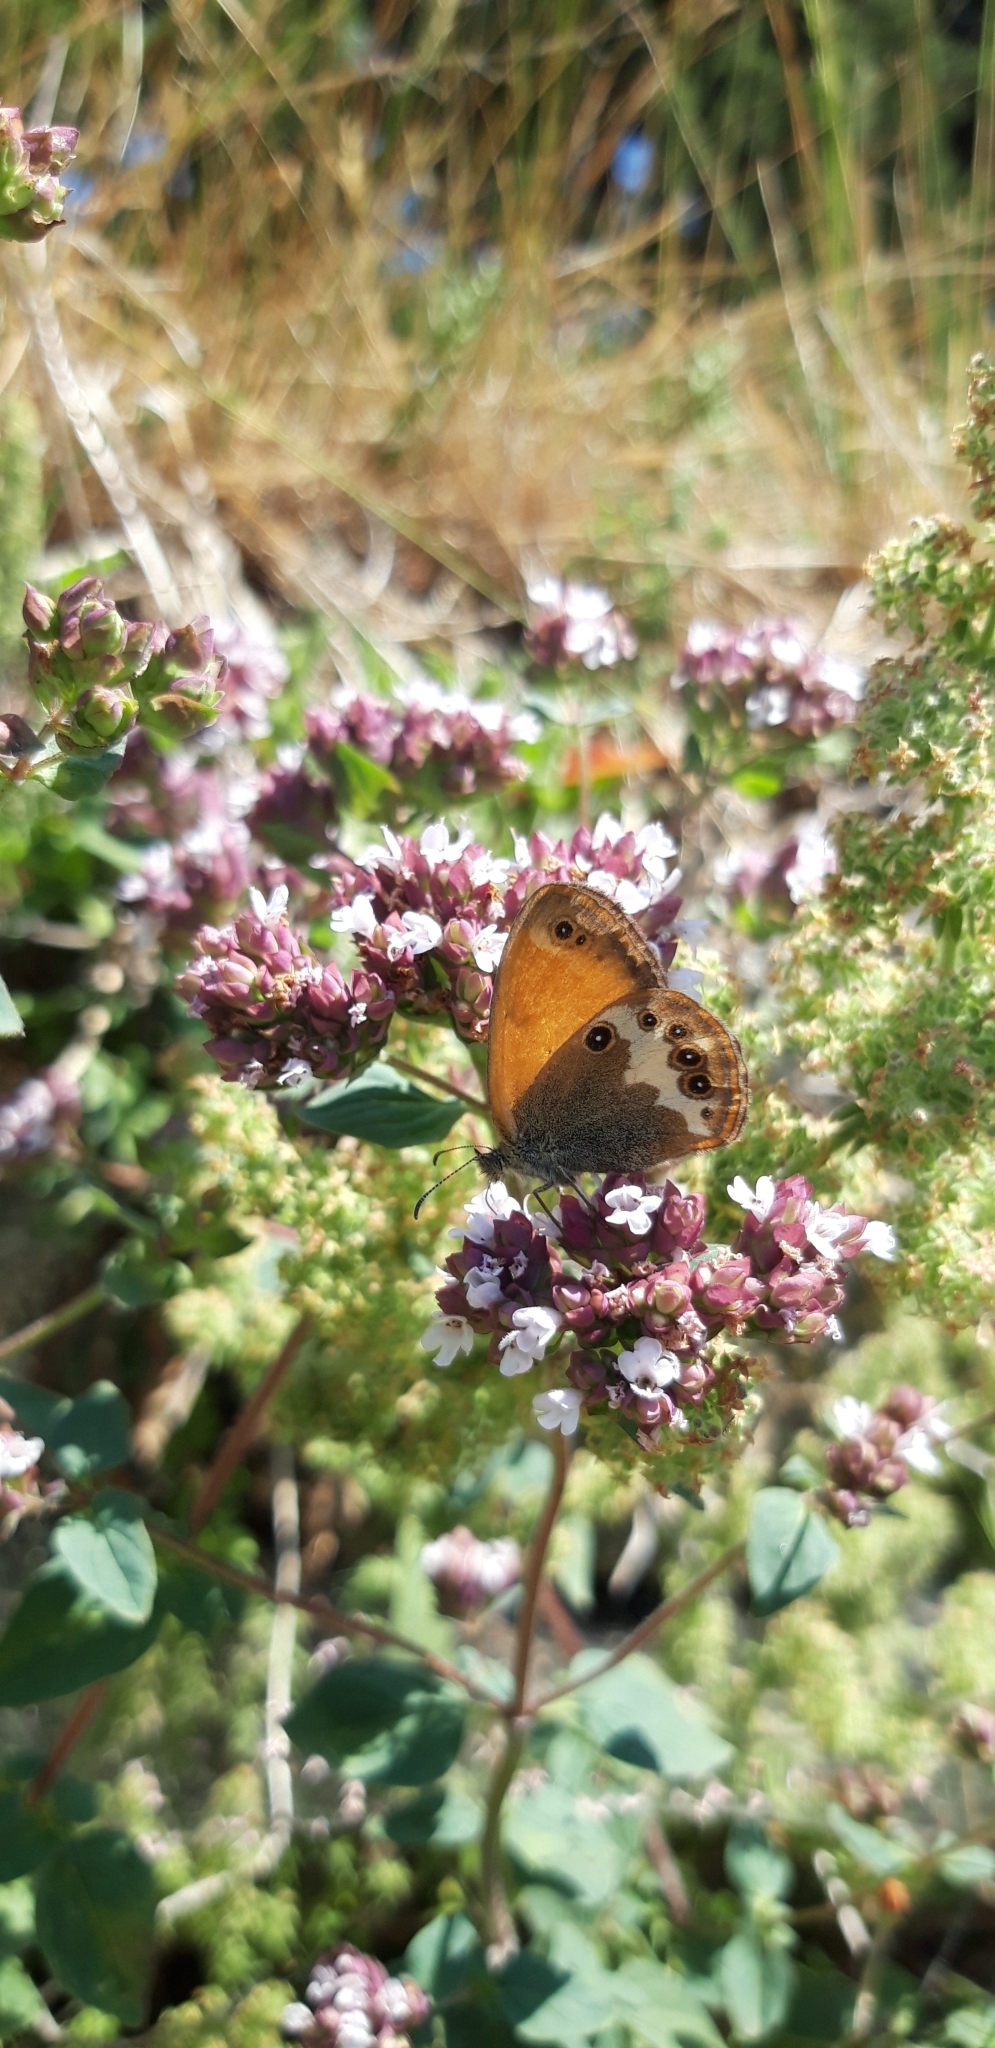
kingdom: Animalia
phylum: Arthropoda
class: Insecta
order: Lepidoptera
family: Nymphalidae
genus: Coenonympha
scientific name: Coenonympha arcania
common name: Pearly heath
